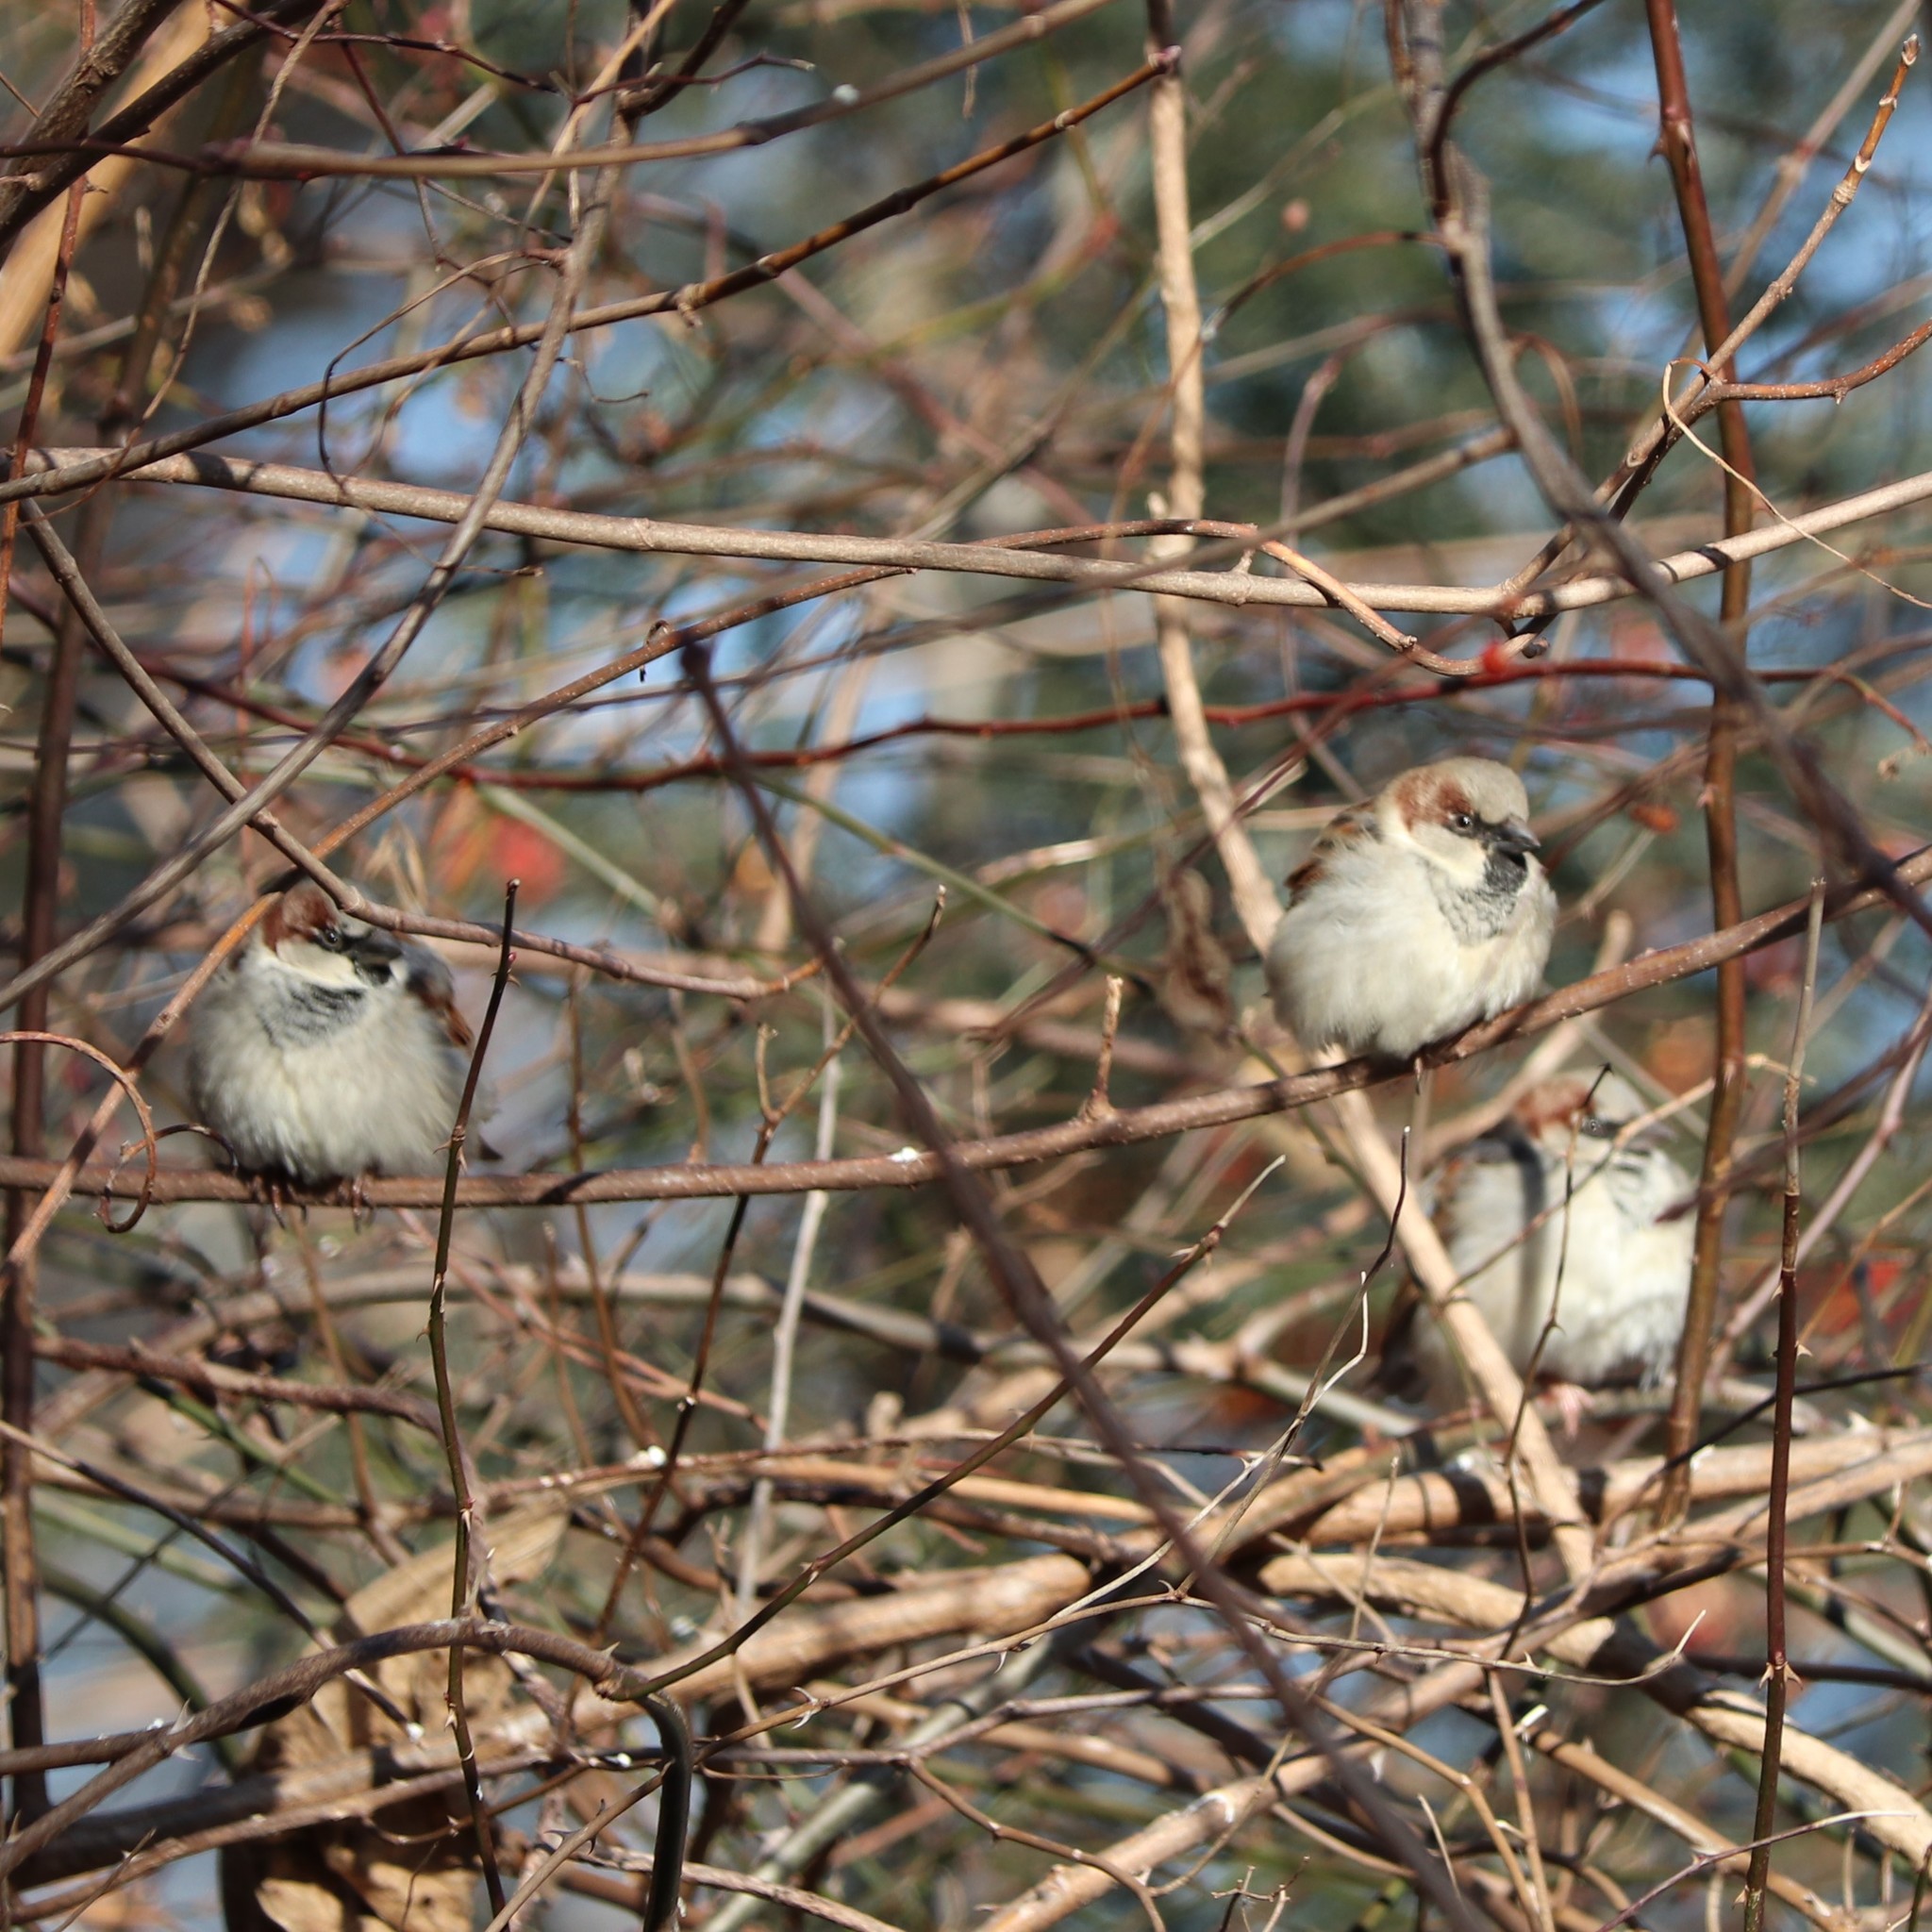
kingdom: Animalia
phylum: Chordata
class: Aves
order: Passeriformes
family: Passeridae
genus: Passer
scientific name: Passer domesticus
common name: House sparrow
